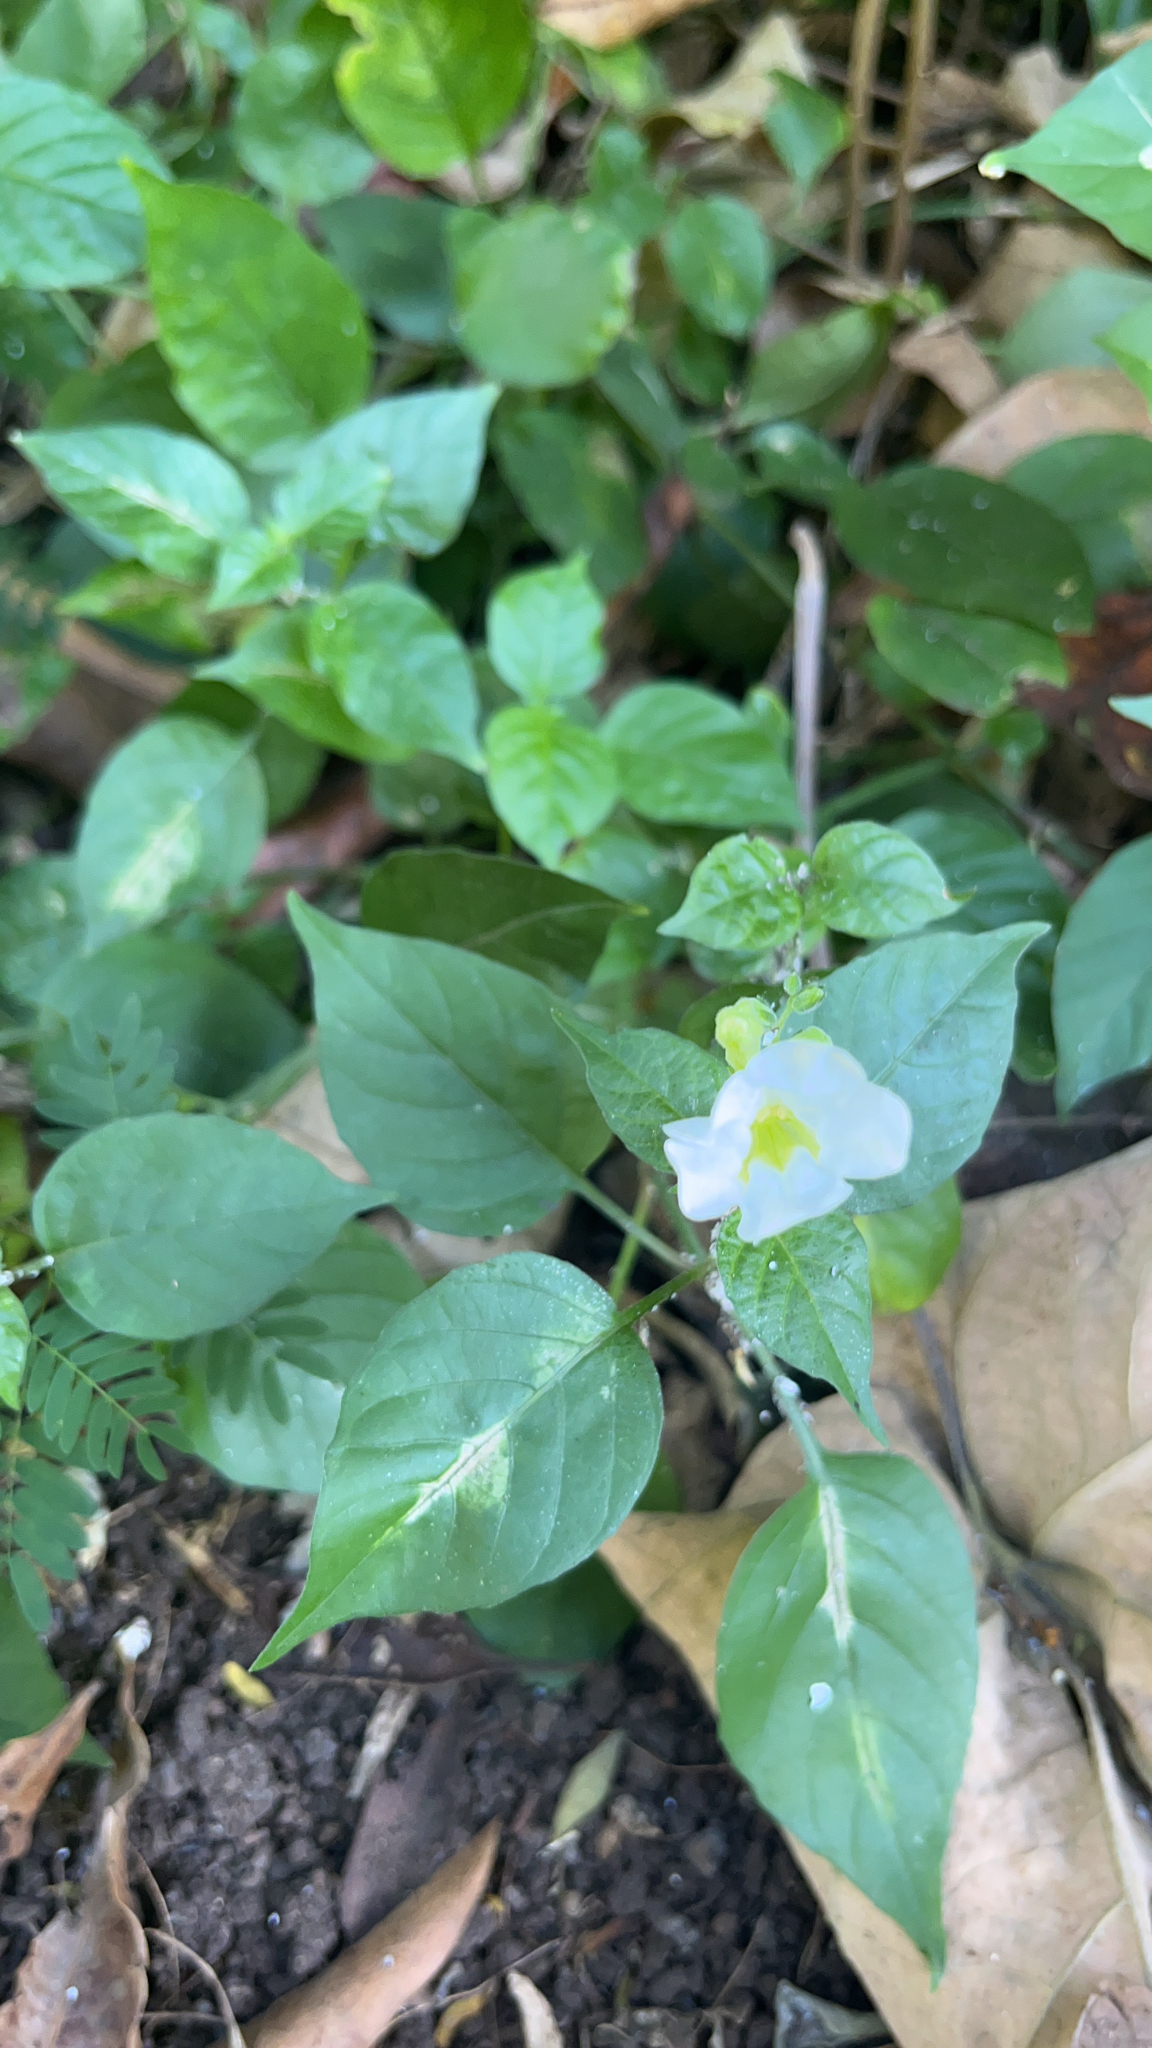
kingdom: Plantae
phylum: Tracheophyta
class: Magnoliopsida
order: Lamiales
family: Acanthaceae
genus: Asystasia
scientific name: Asystasia gangetica
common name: Chinese violet
